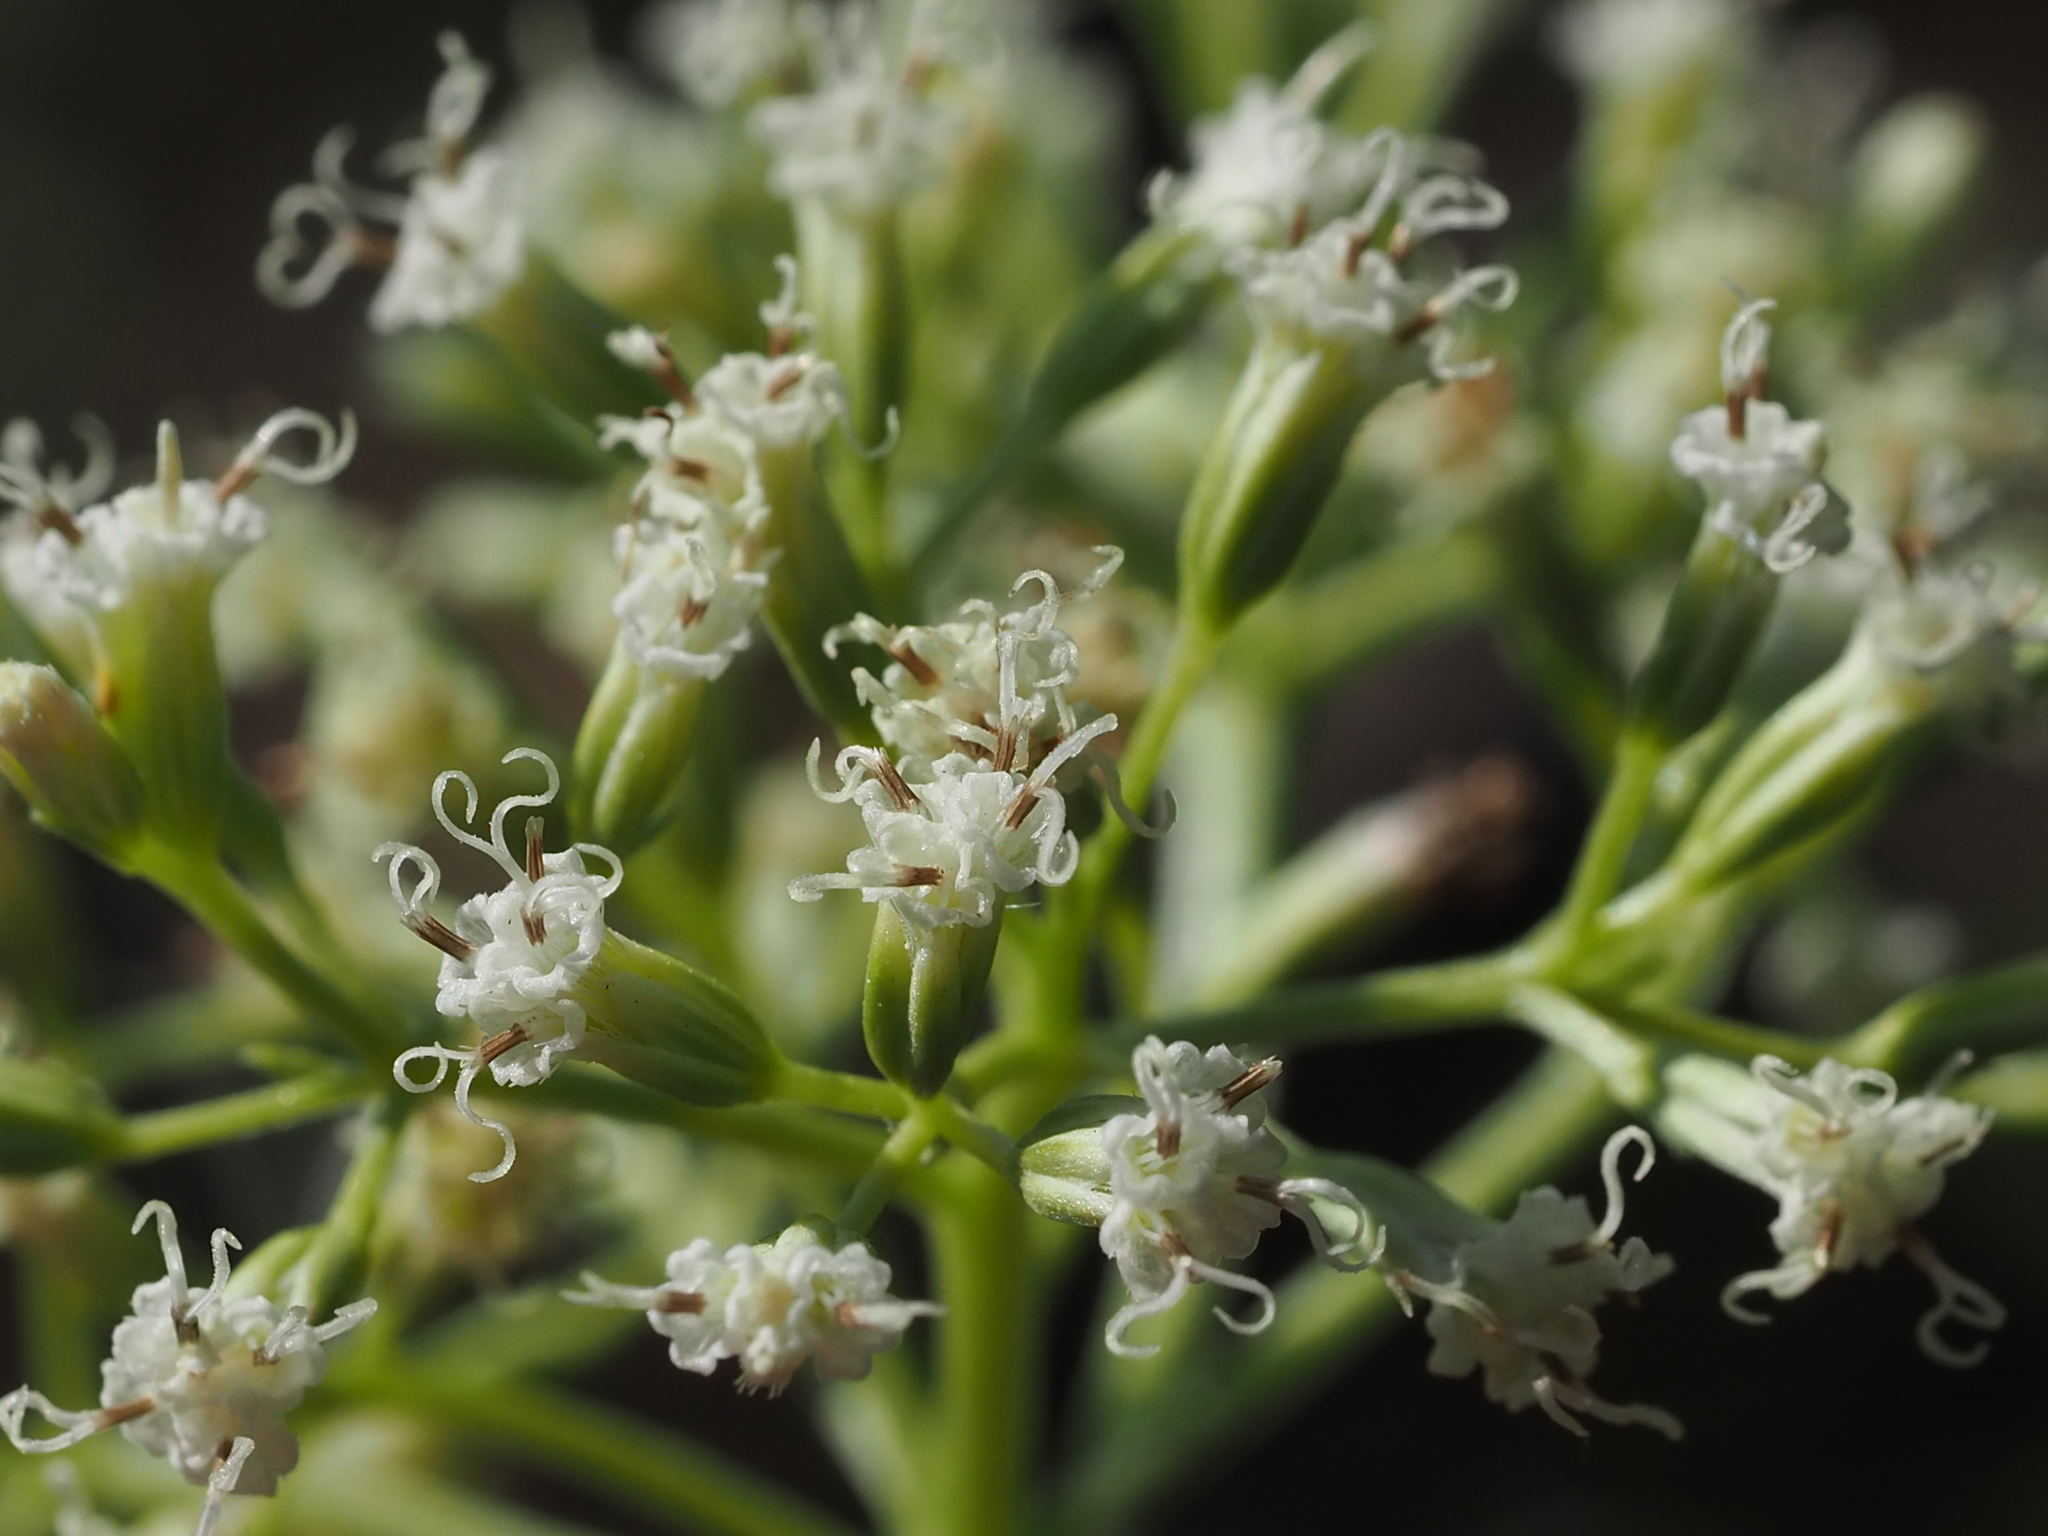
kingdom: Plantae
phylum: Tracheophyta
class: Magnoliopsida
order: Asterales
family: Asteraceae
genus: Mikania
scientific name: Mikania micrantha
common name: Mile-a-minute
